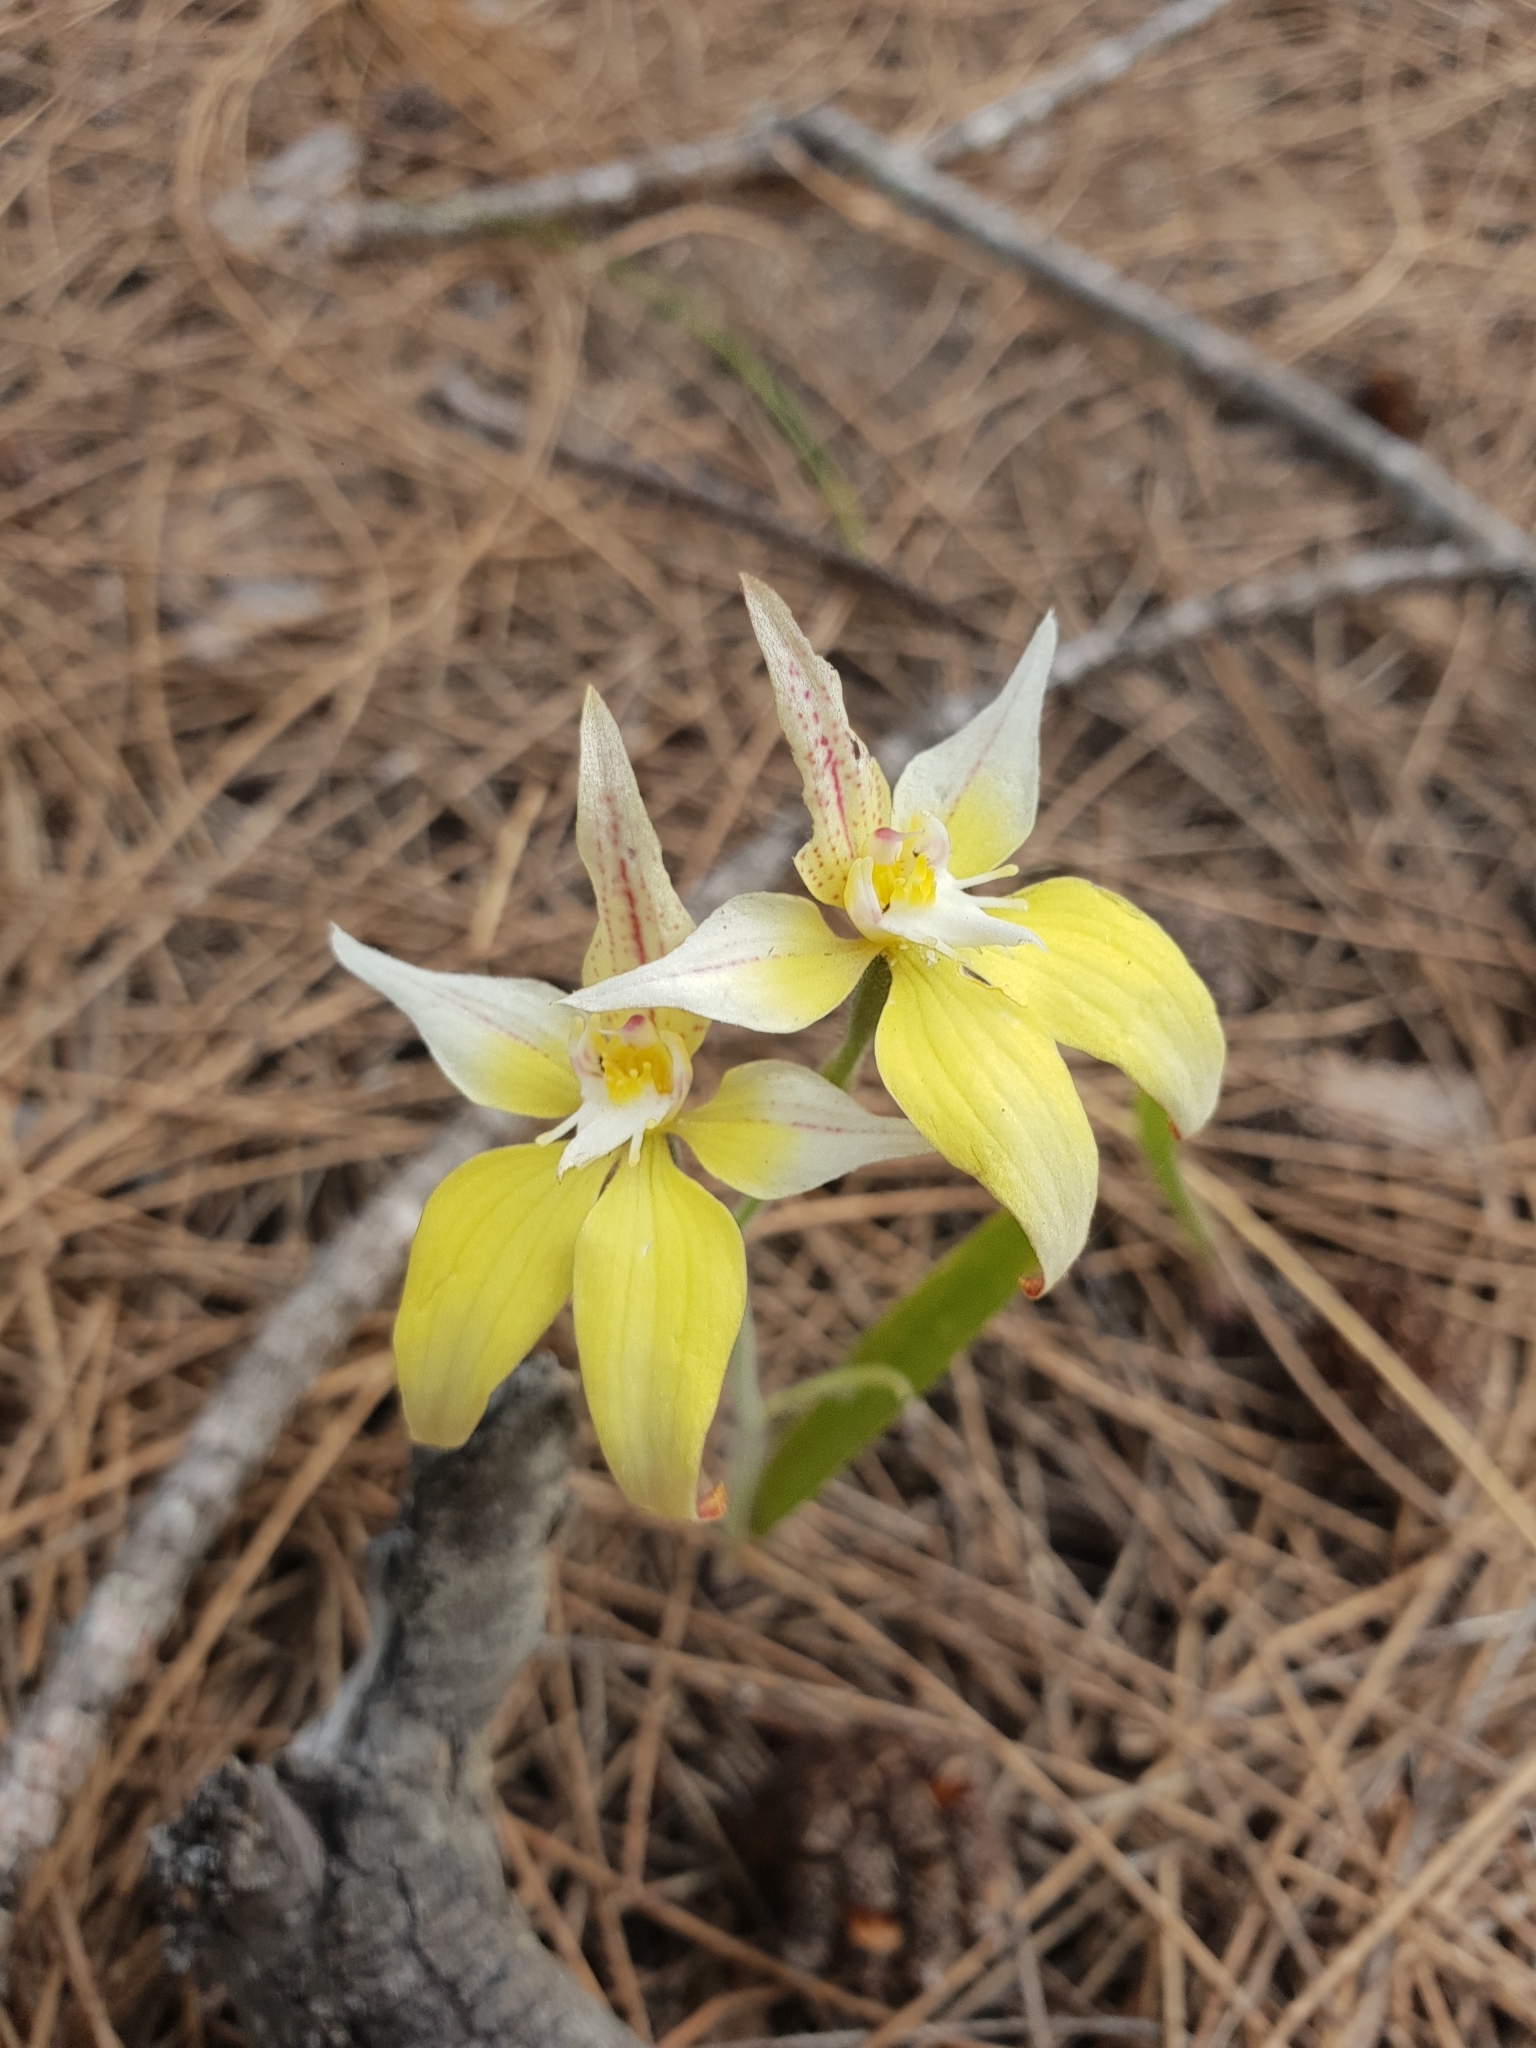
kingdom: Plantae
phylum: Tracheophyta
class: Liliopsida
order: Asparagales
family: Orchidaceae
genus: Caladenia
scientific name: Caladenia flava
